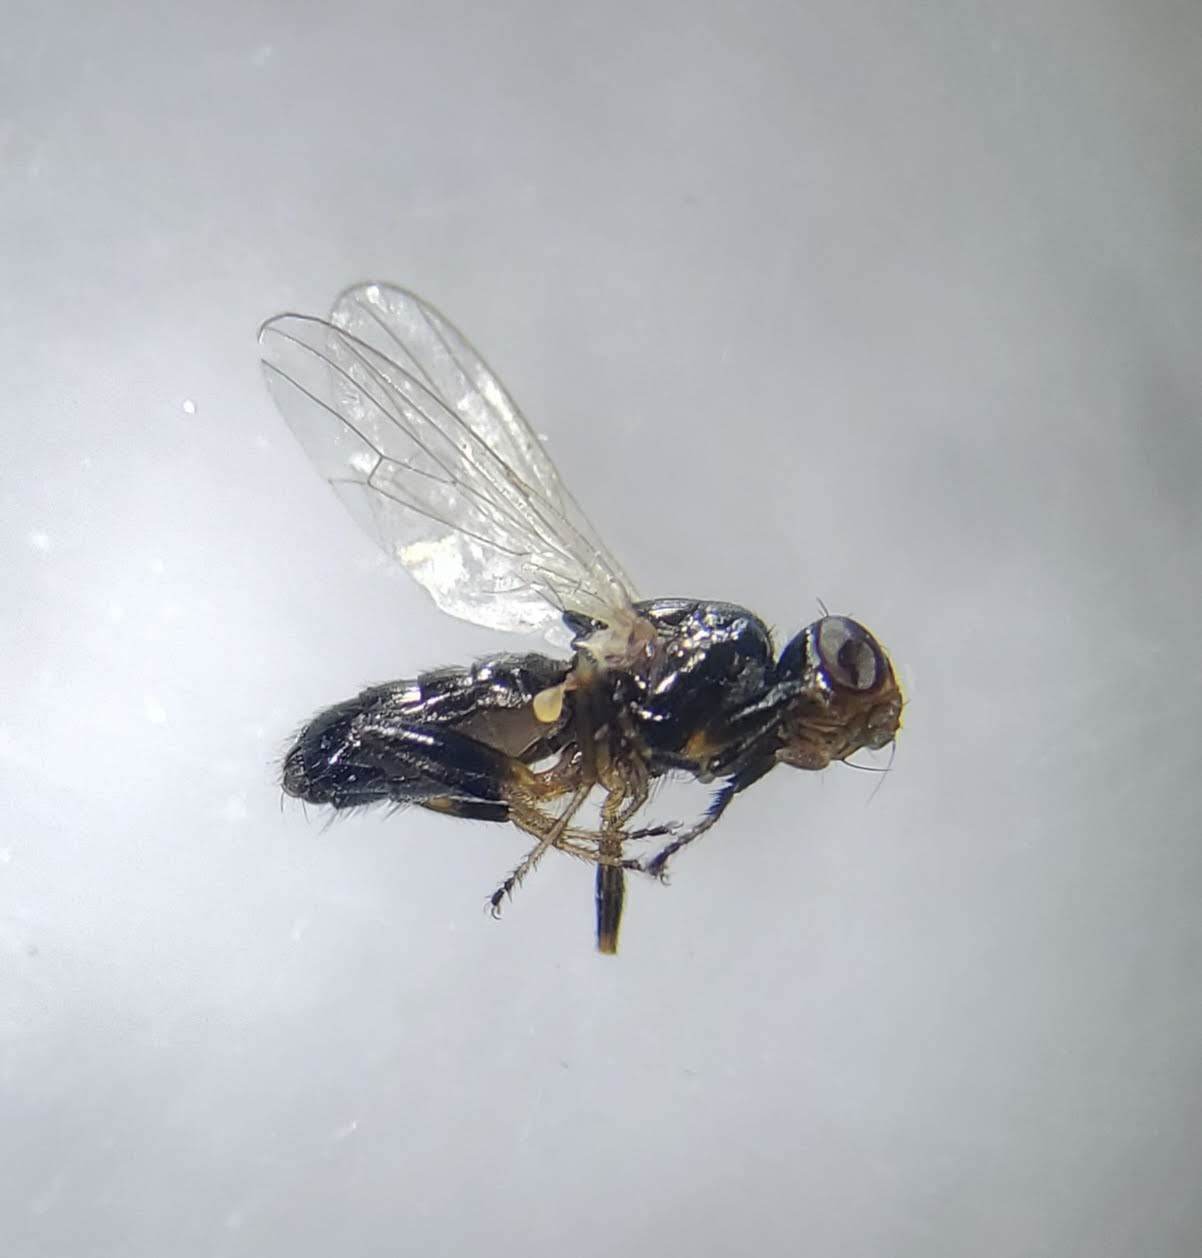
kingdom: Animalia
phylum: Arthropoda
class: Insecta
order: Diptera
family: Piophilidae
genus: Piophila
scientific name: Piophila casei
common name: Cheese skipper
